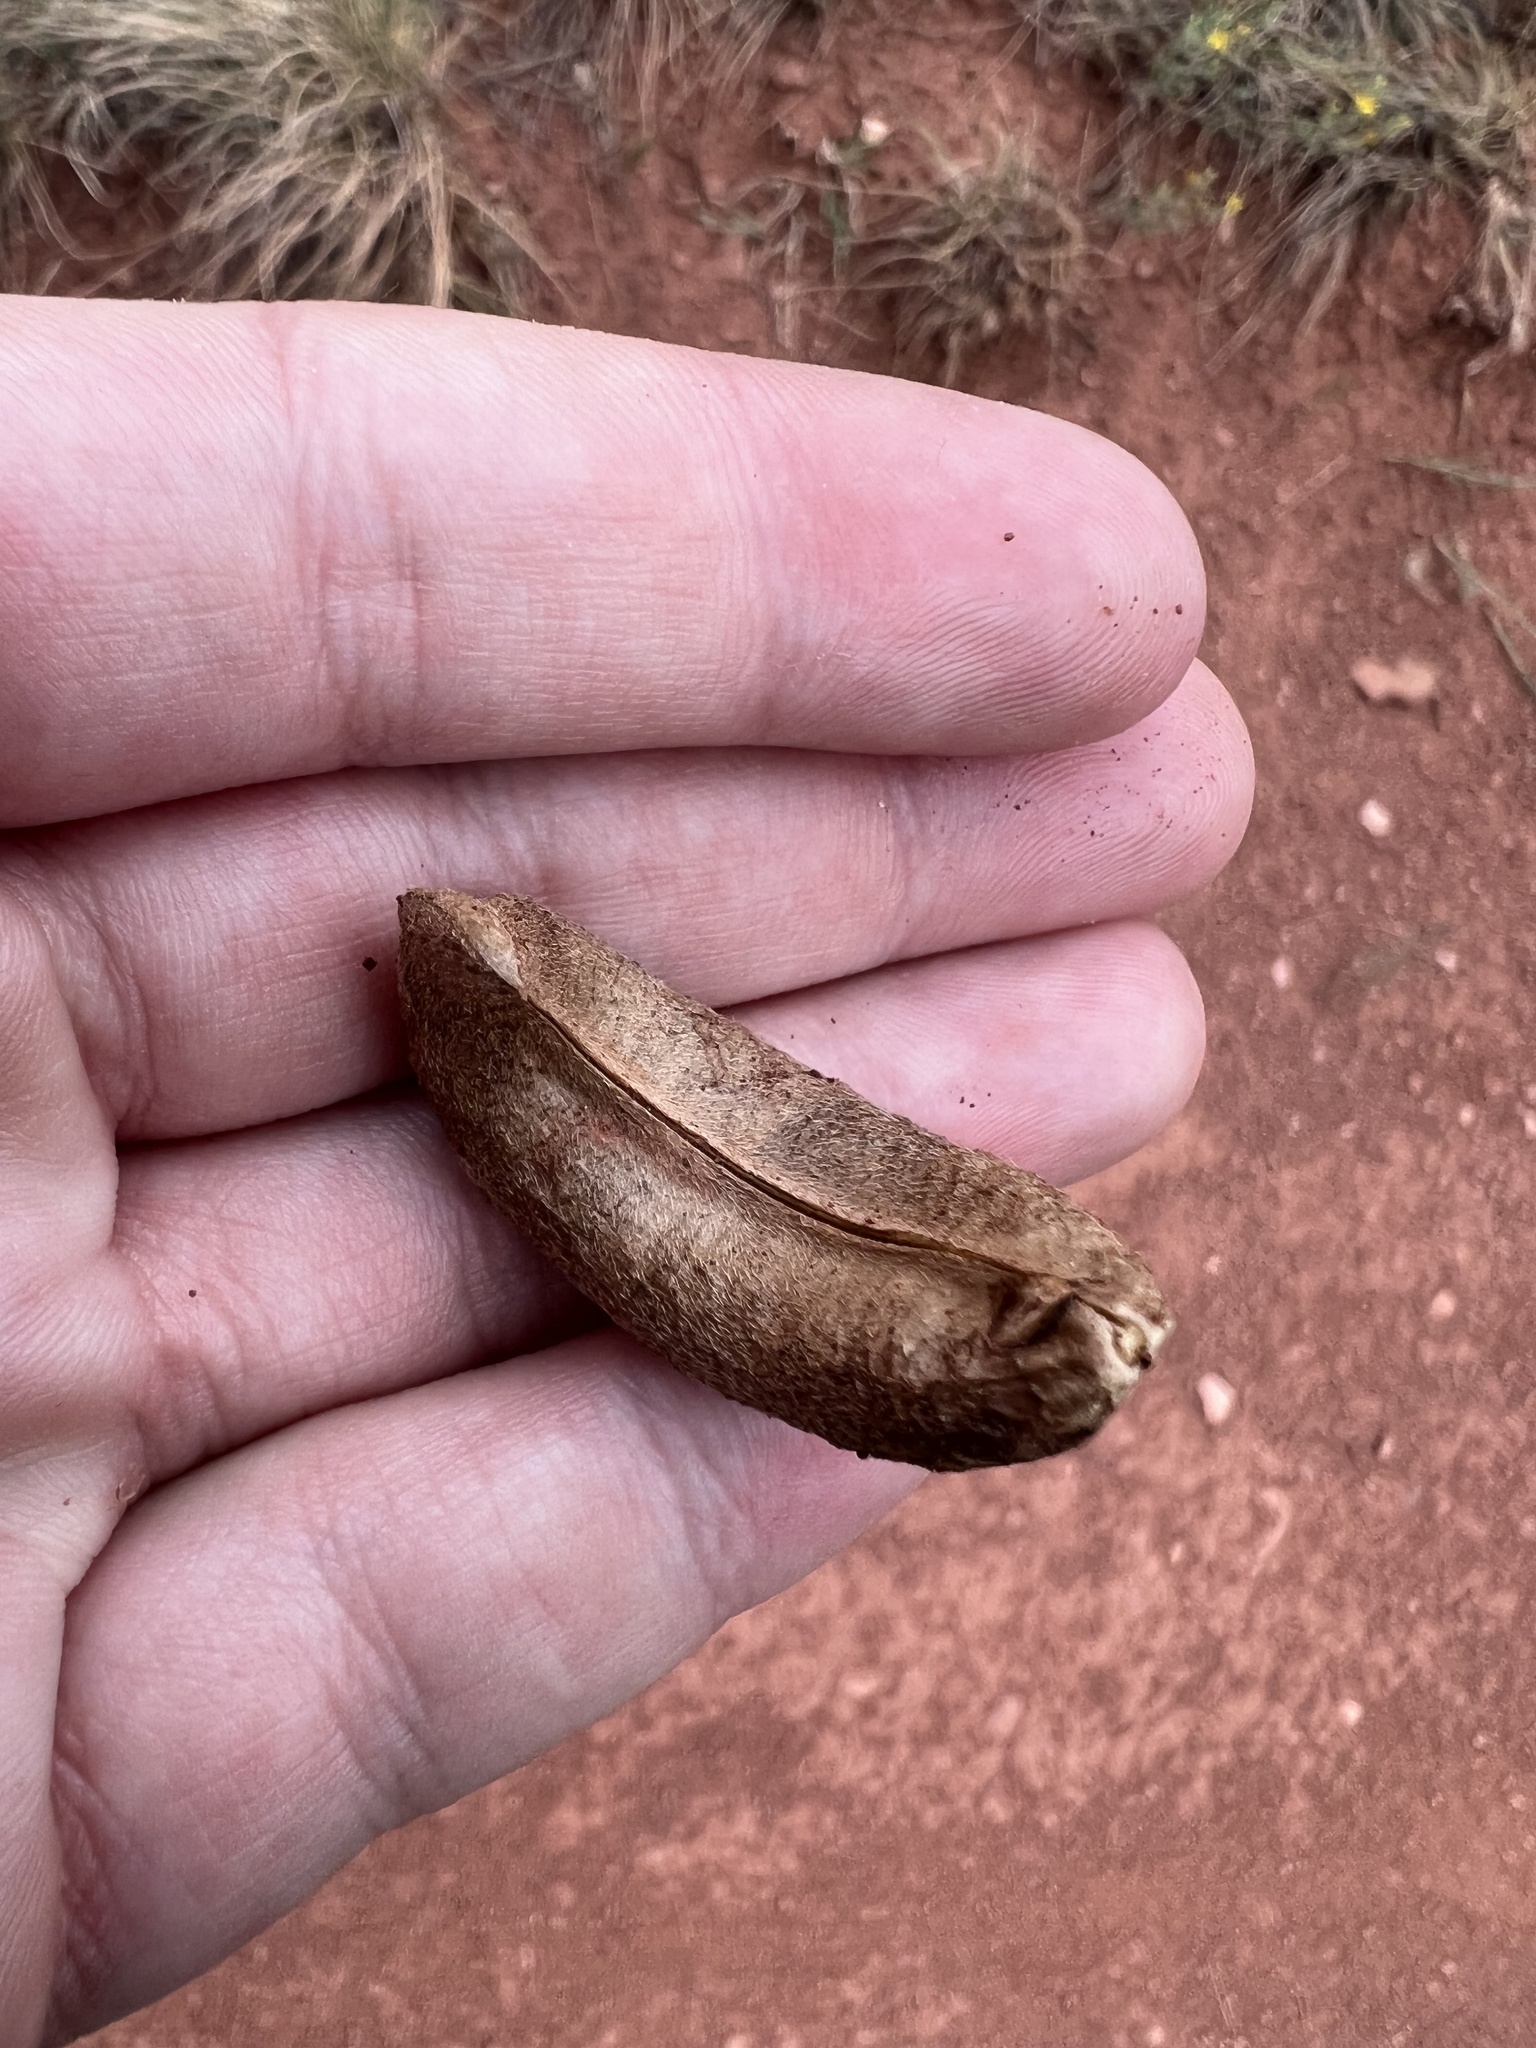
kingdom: Plantae
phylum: Tracheophyta
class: Magnoliopsida
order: Fabales
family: Fabaceae
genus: Astragalus
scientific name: Astragalus shortianus
